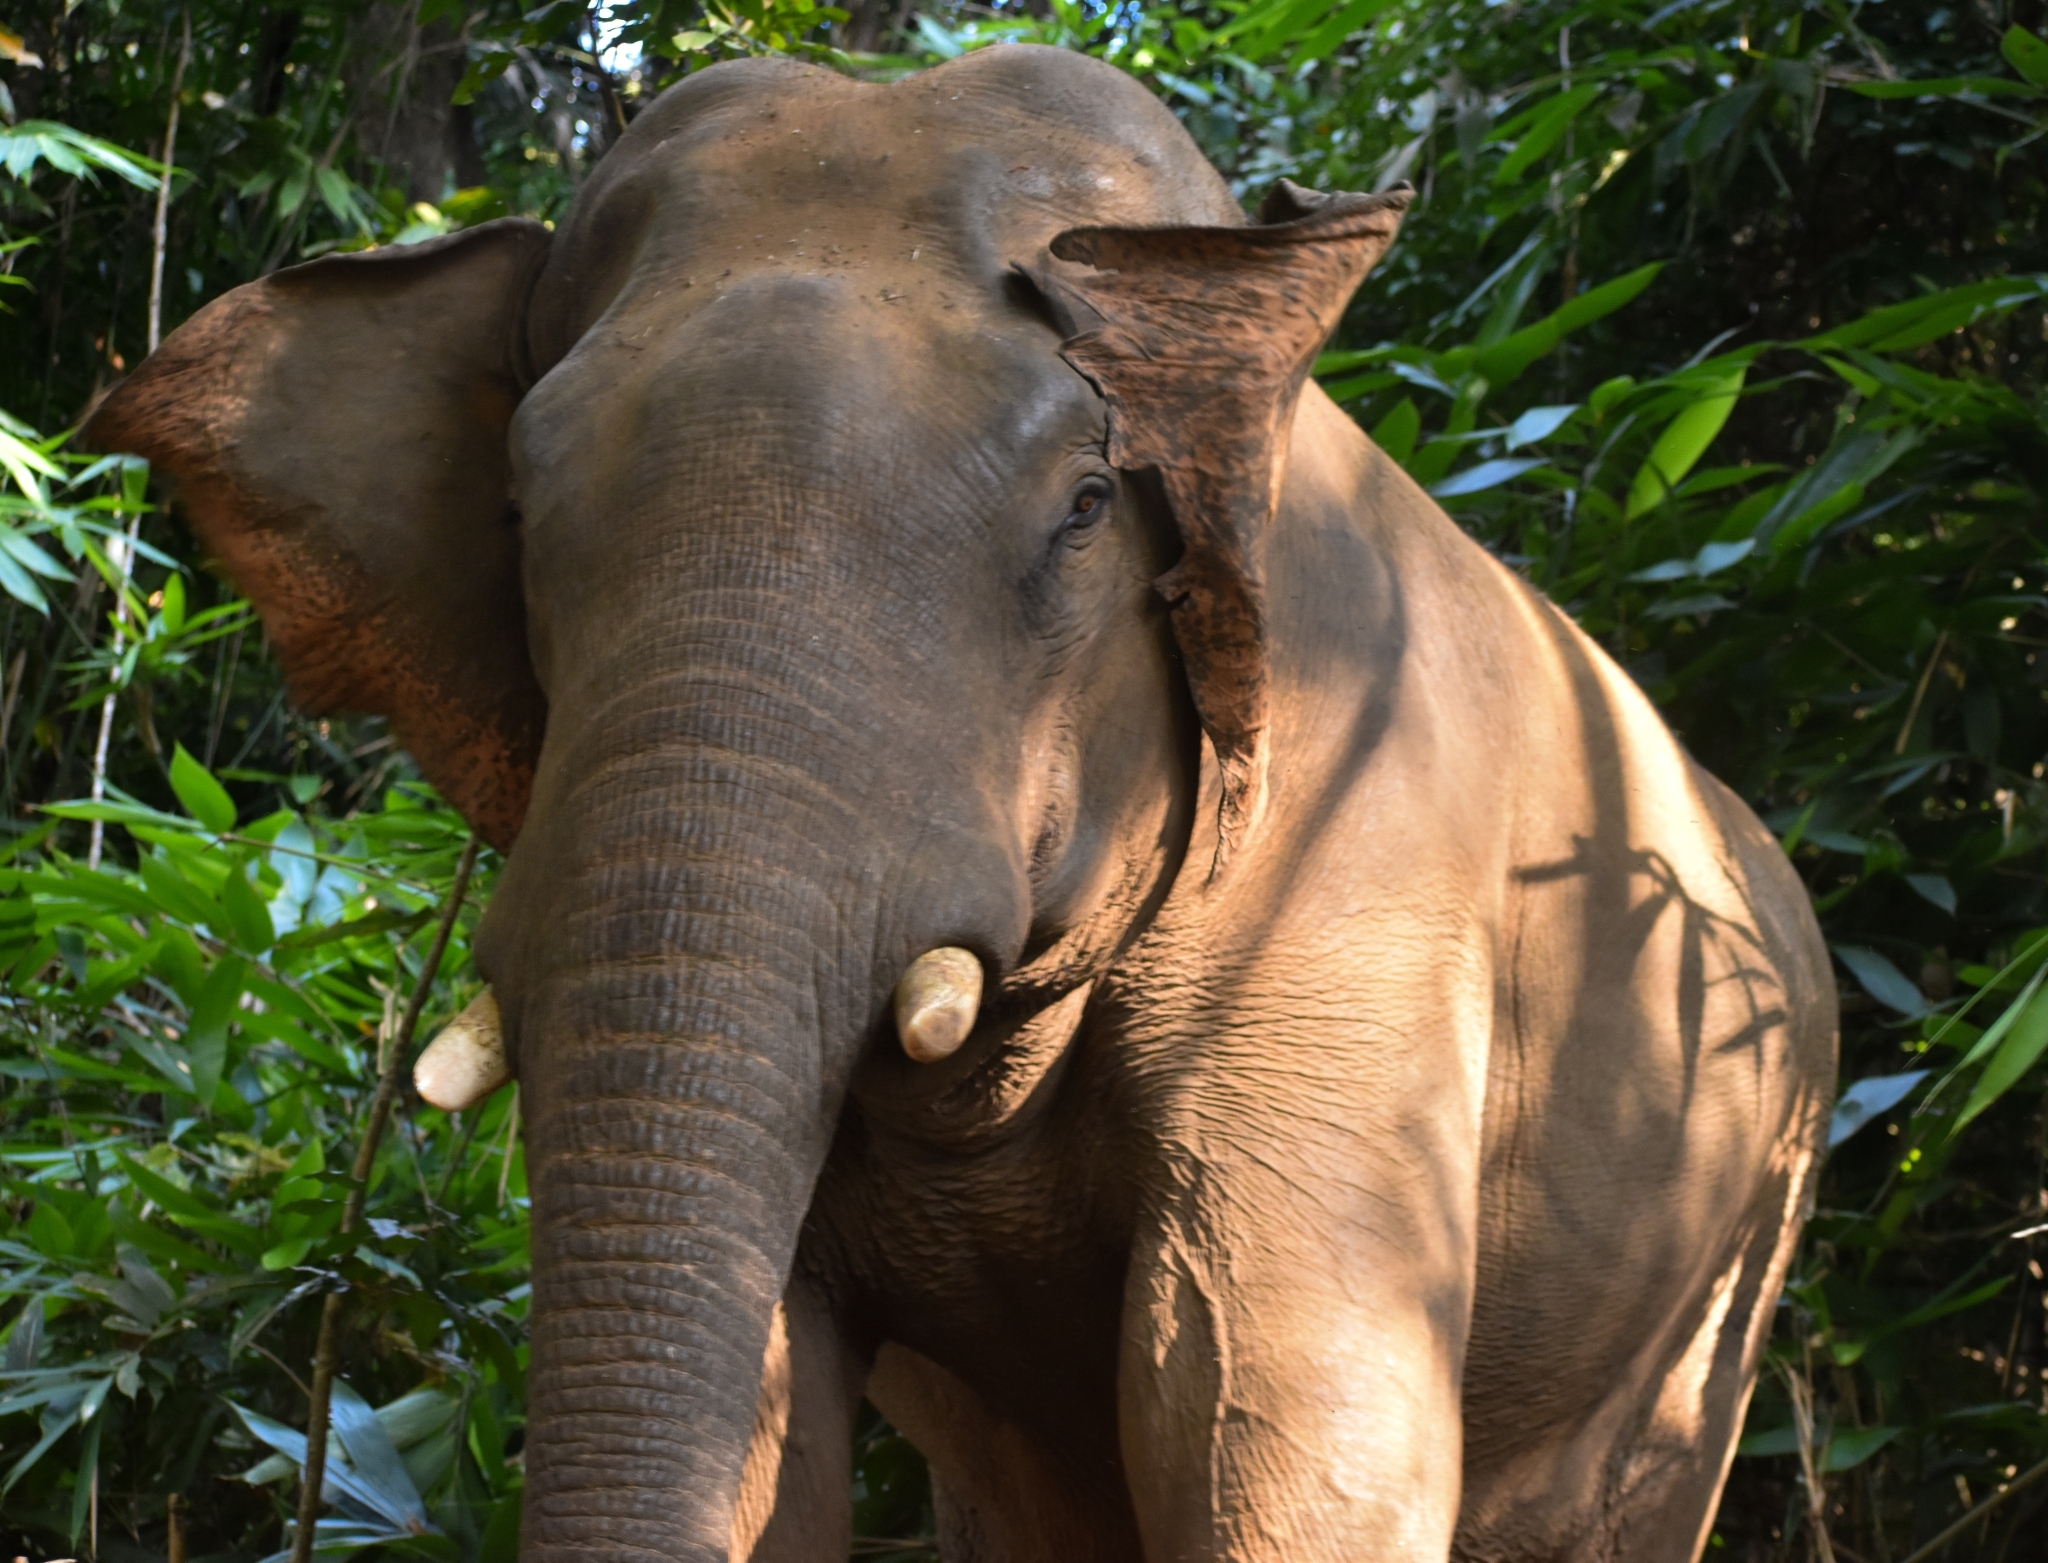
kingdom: Animalia
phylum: Chordata
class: Mammalia
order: Proboscidea
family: Elephantidae
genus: Elephas
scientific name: Elephas maximus
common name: Asian elephant
